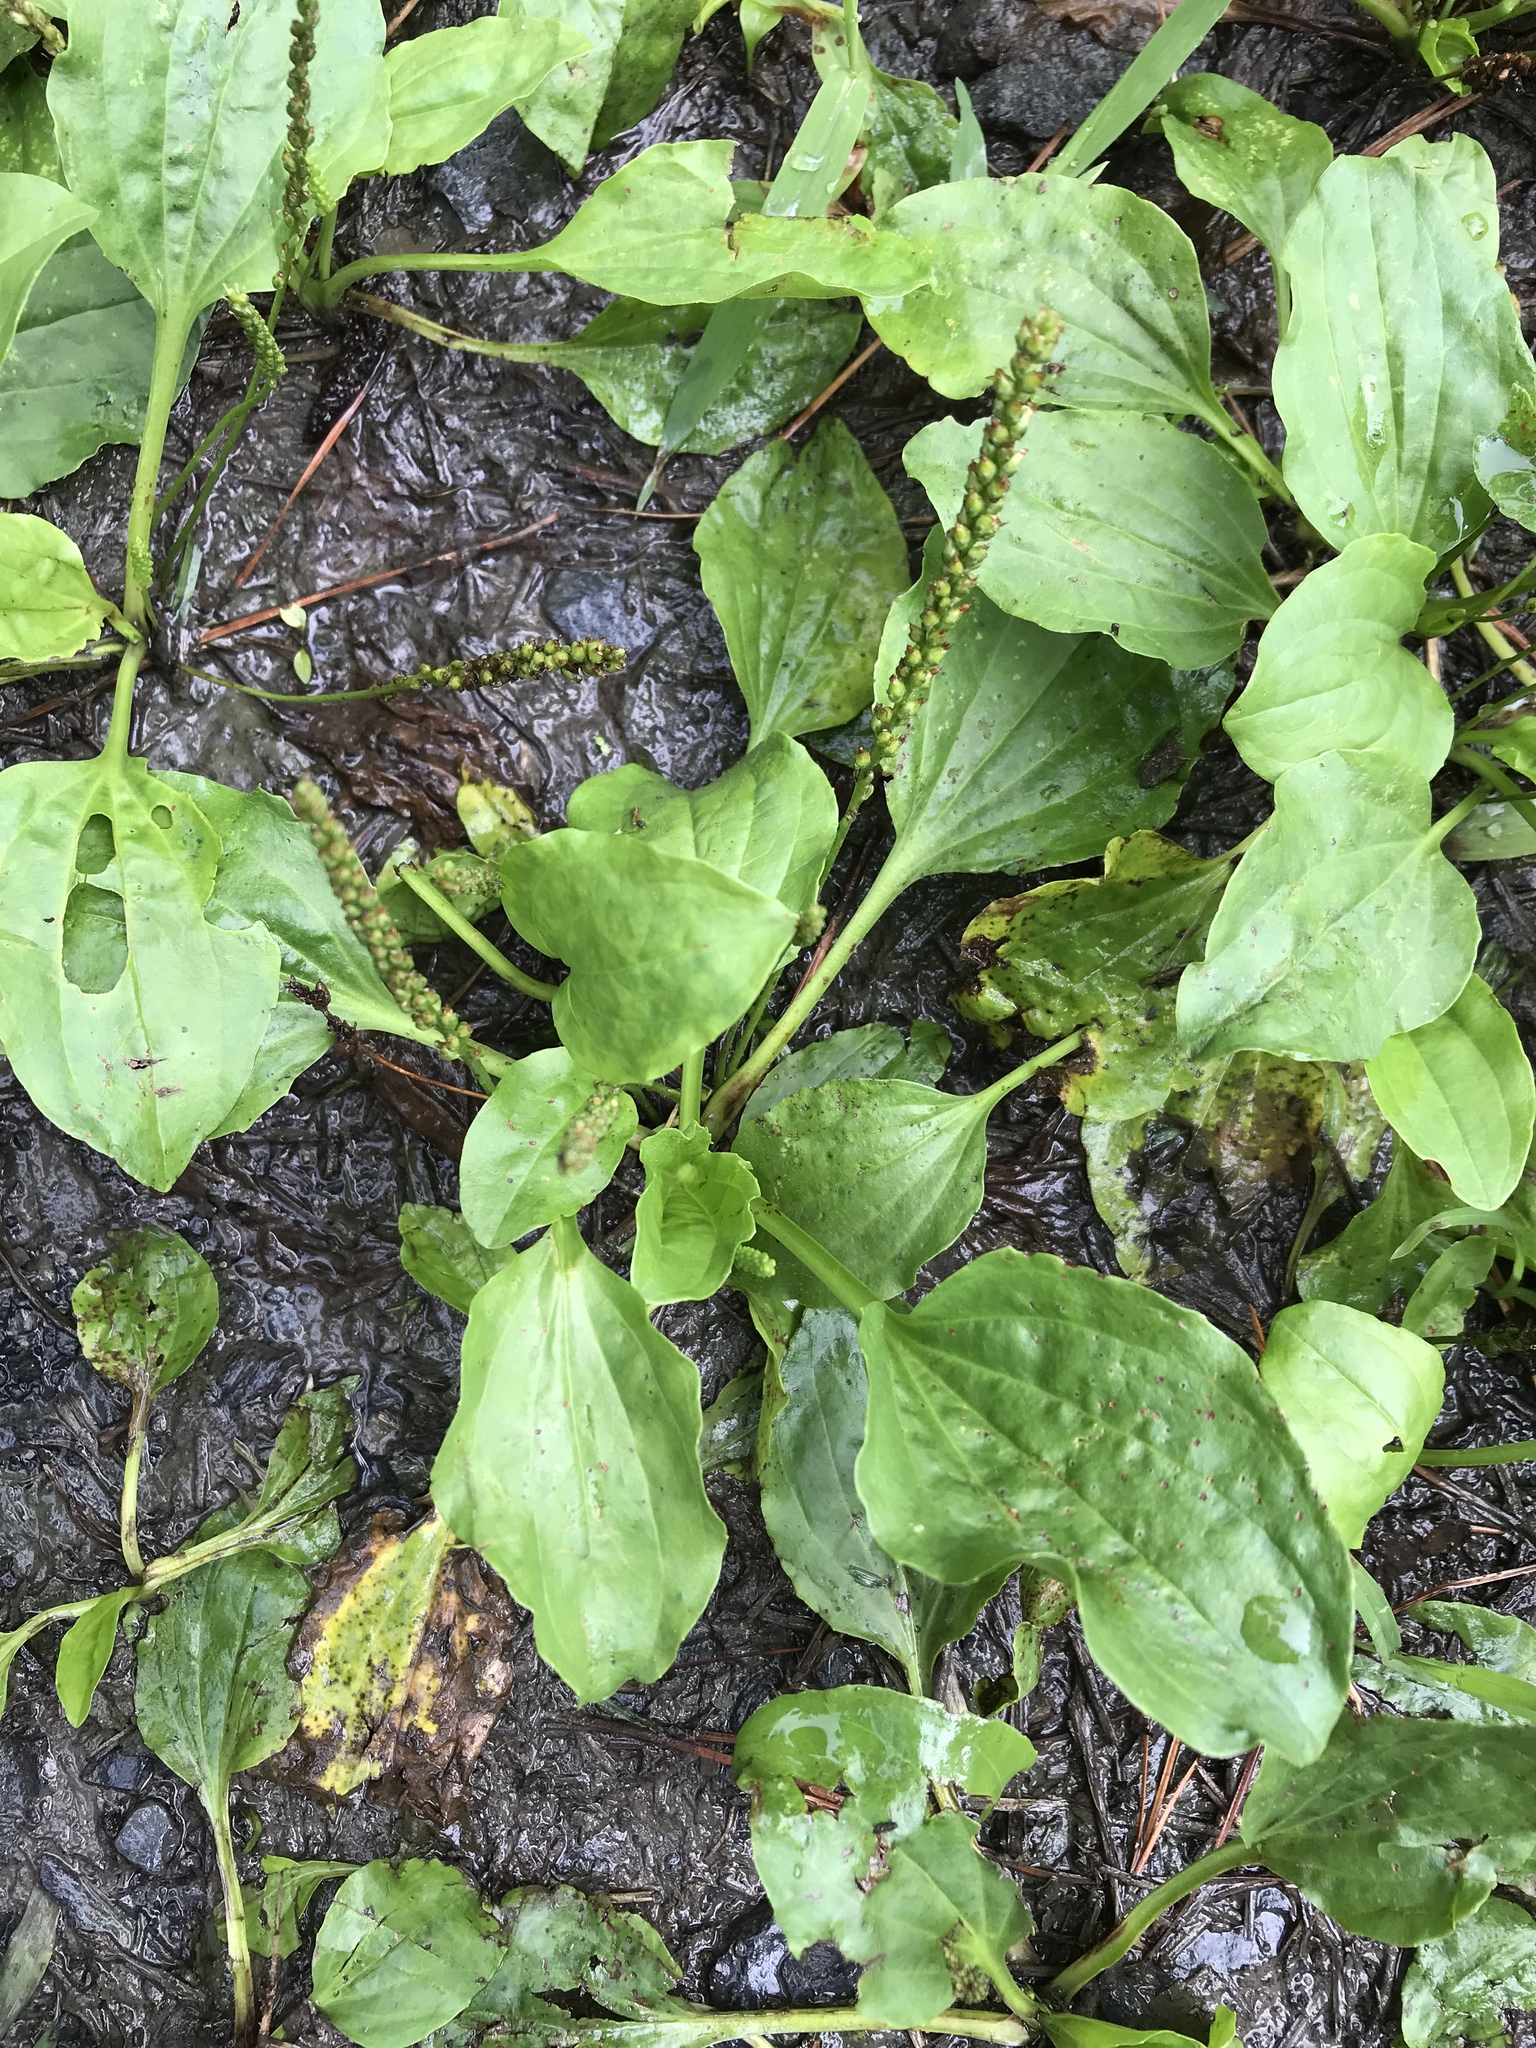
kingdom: Plantae
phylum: Tracheophyta
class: Magnoliopsida
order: Lamiales
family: Plantaginaceae
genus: Plantago
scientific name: Plantago rugelii
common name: American plantain
